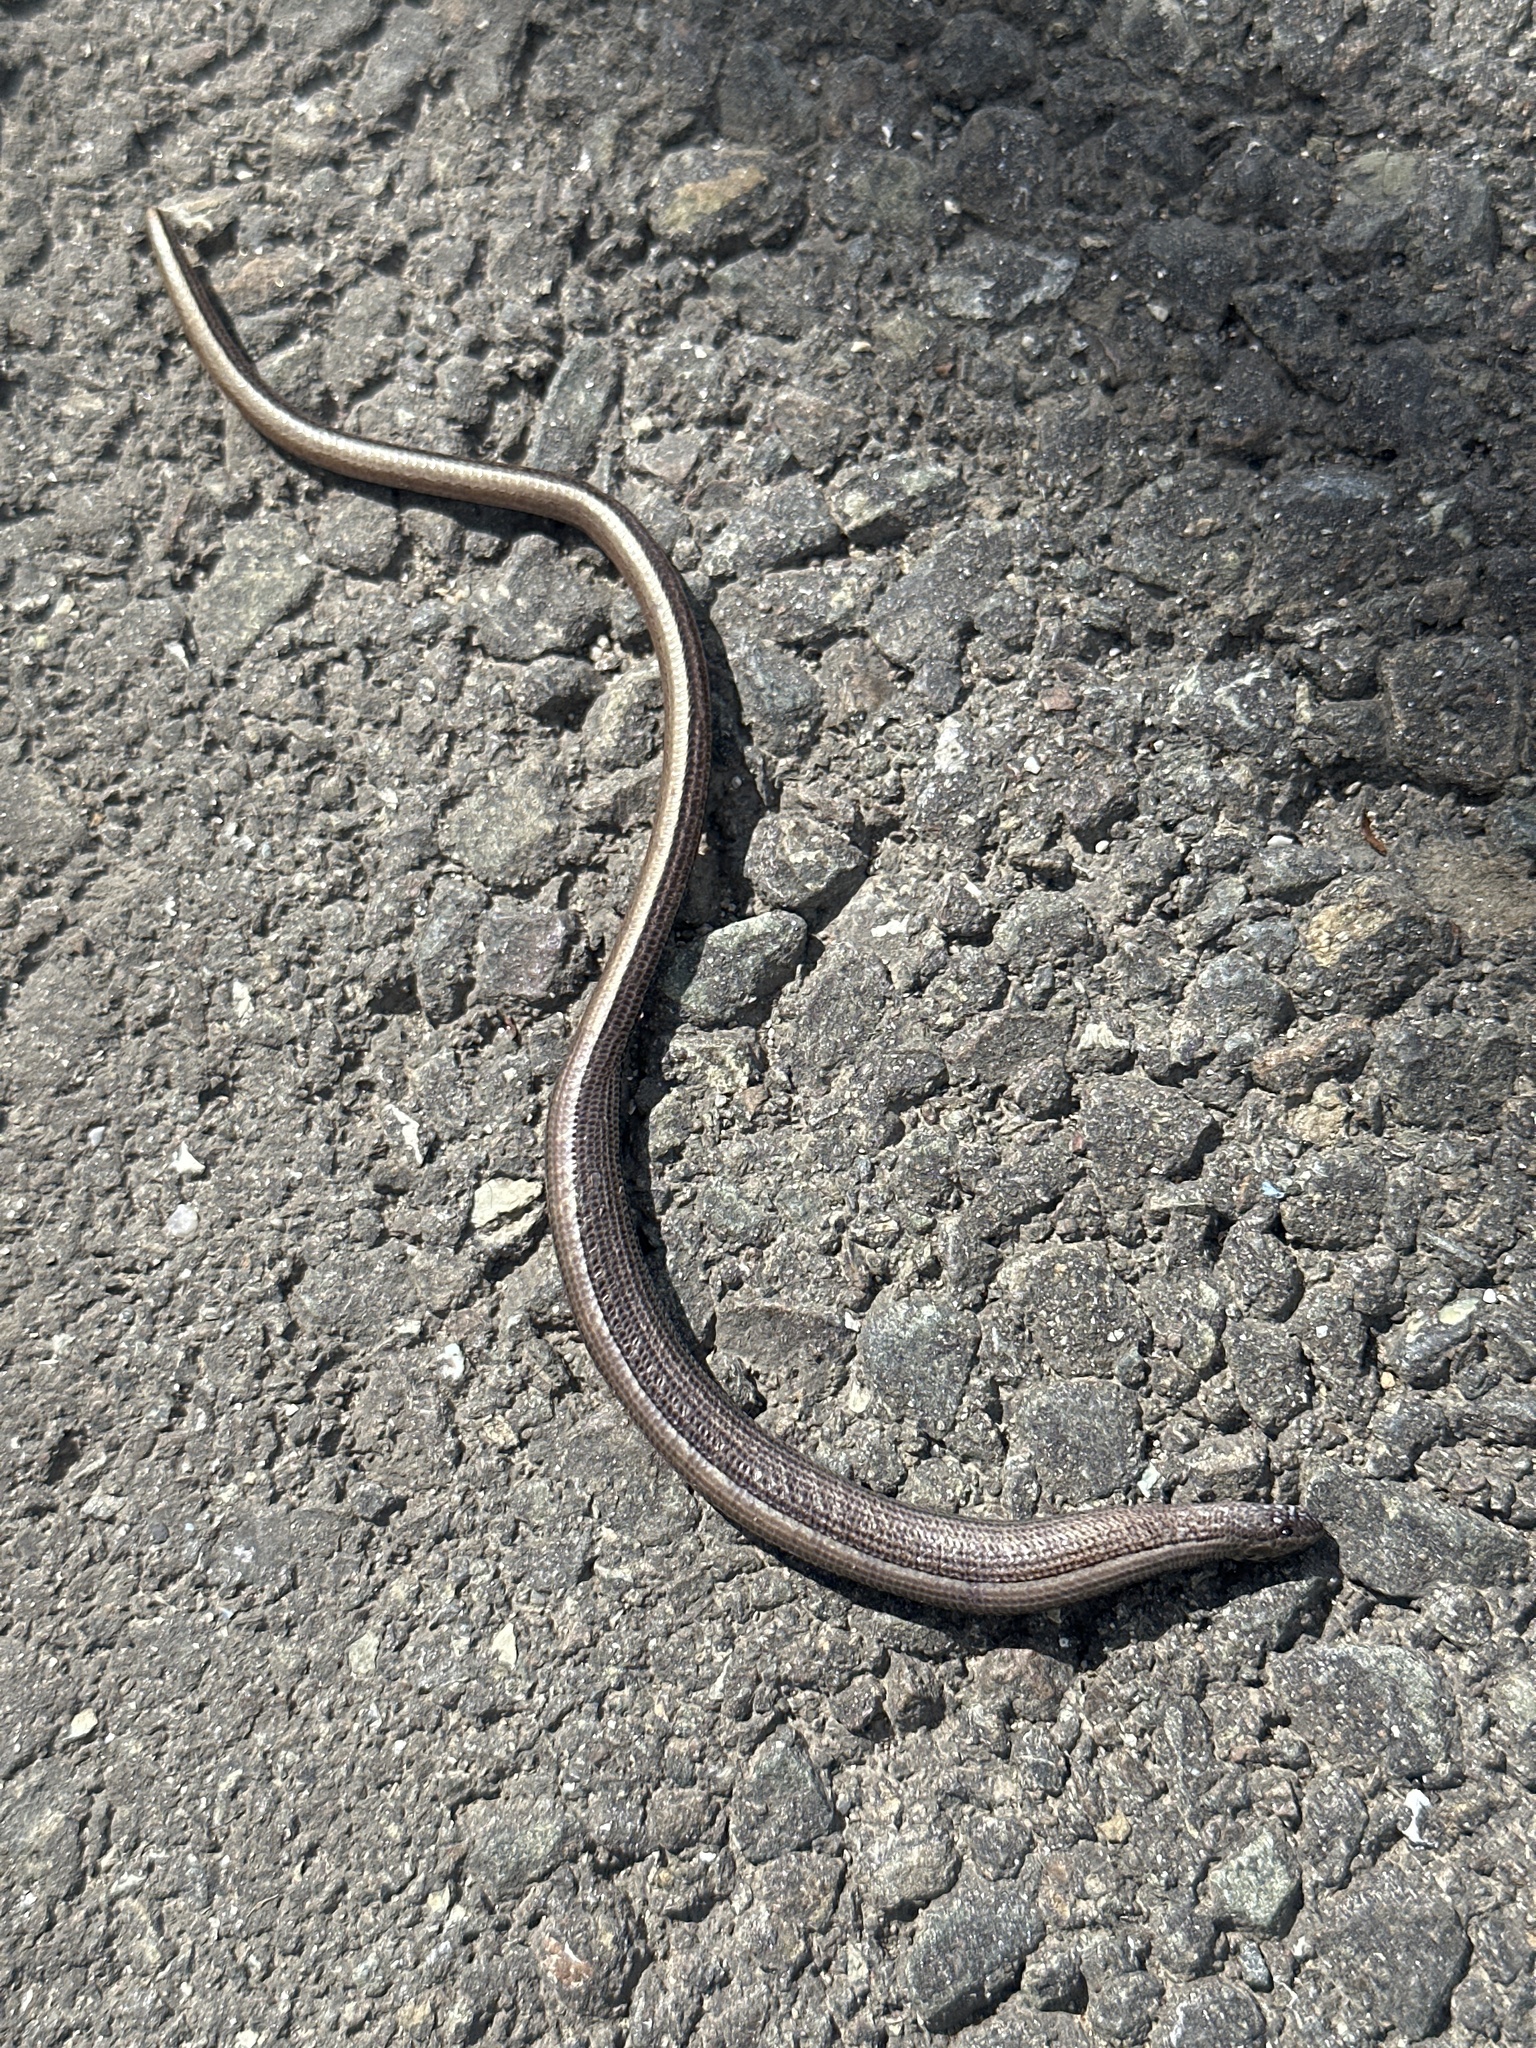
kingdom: Animalia
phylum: Chordata
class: Squamata
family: Anguidae
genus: Anguis
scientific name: Anguis fragilis
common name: Slow worm
